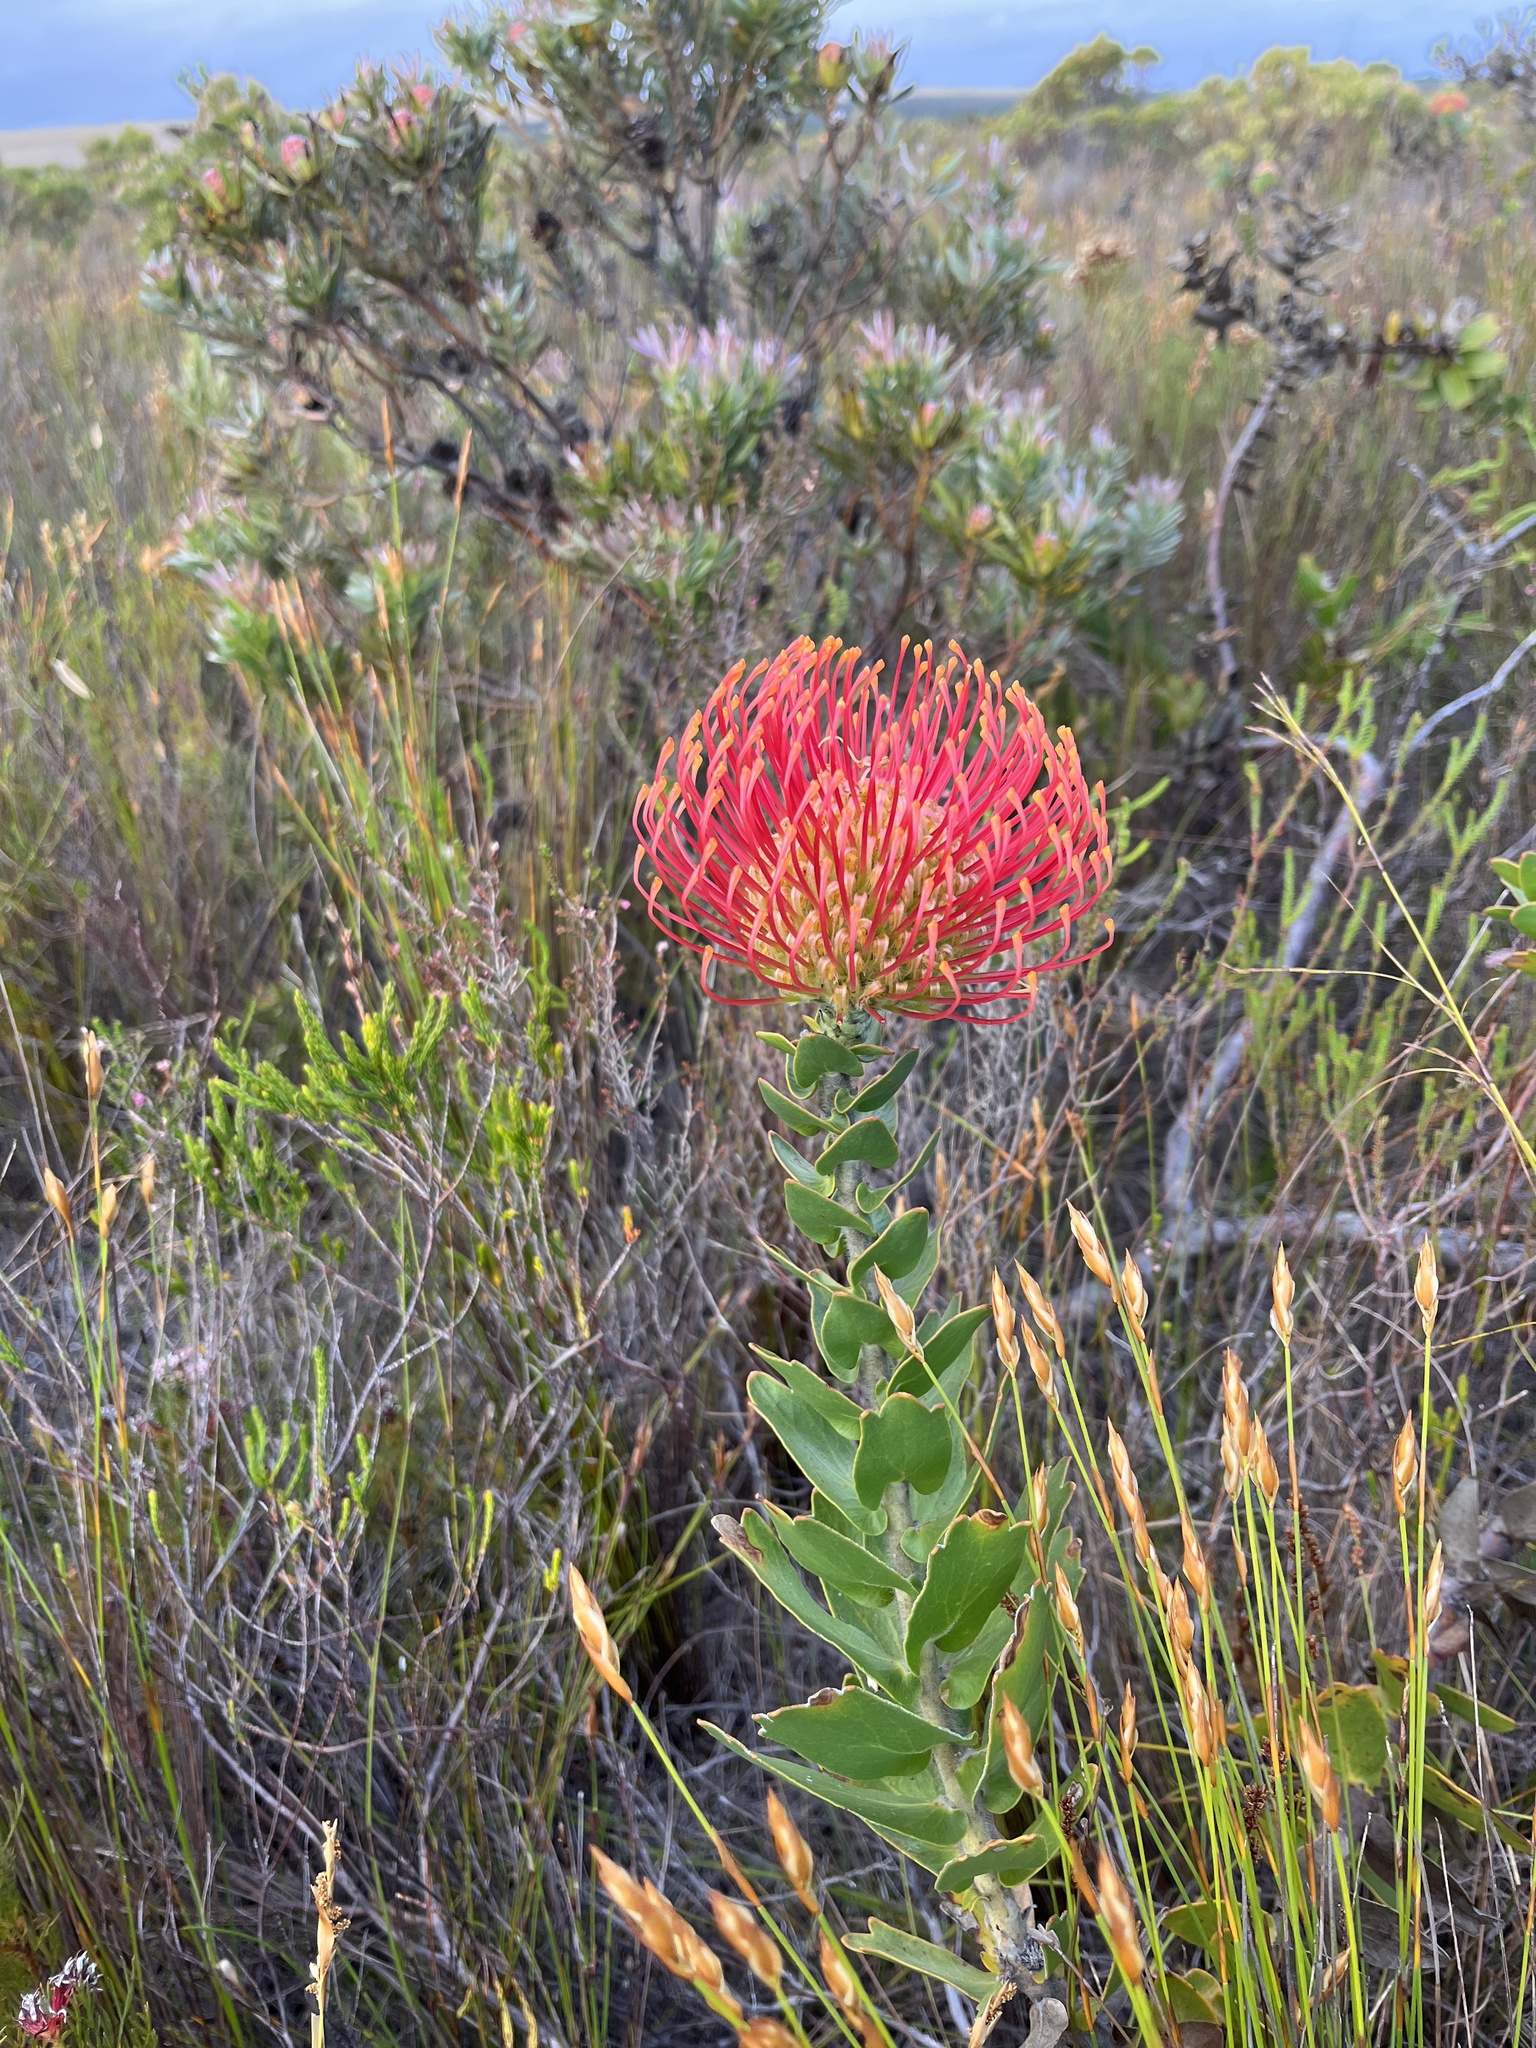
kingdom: Plantae
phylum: Tracheophyta
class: Magnoliopsida
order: Proteales
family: Proteaceae
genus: Leucospermum
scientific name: Leucospermum cordifolium
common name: Red pincushion-protea
